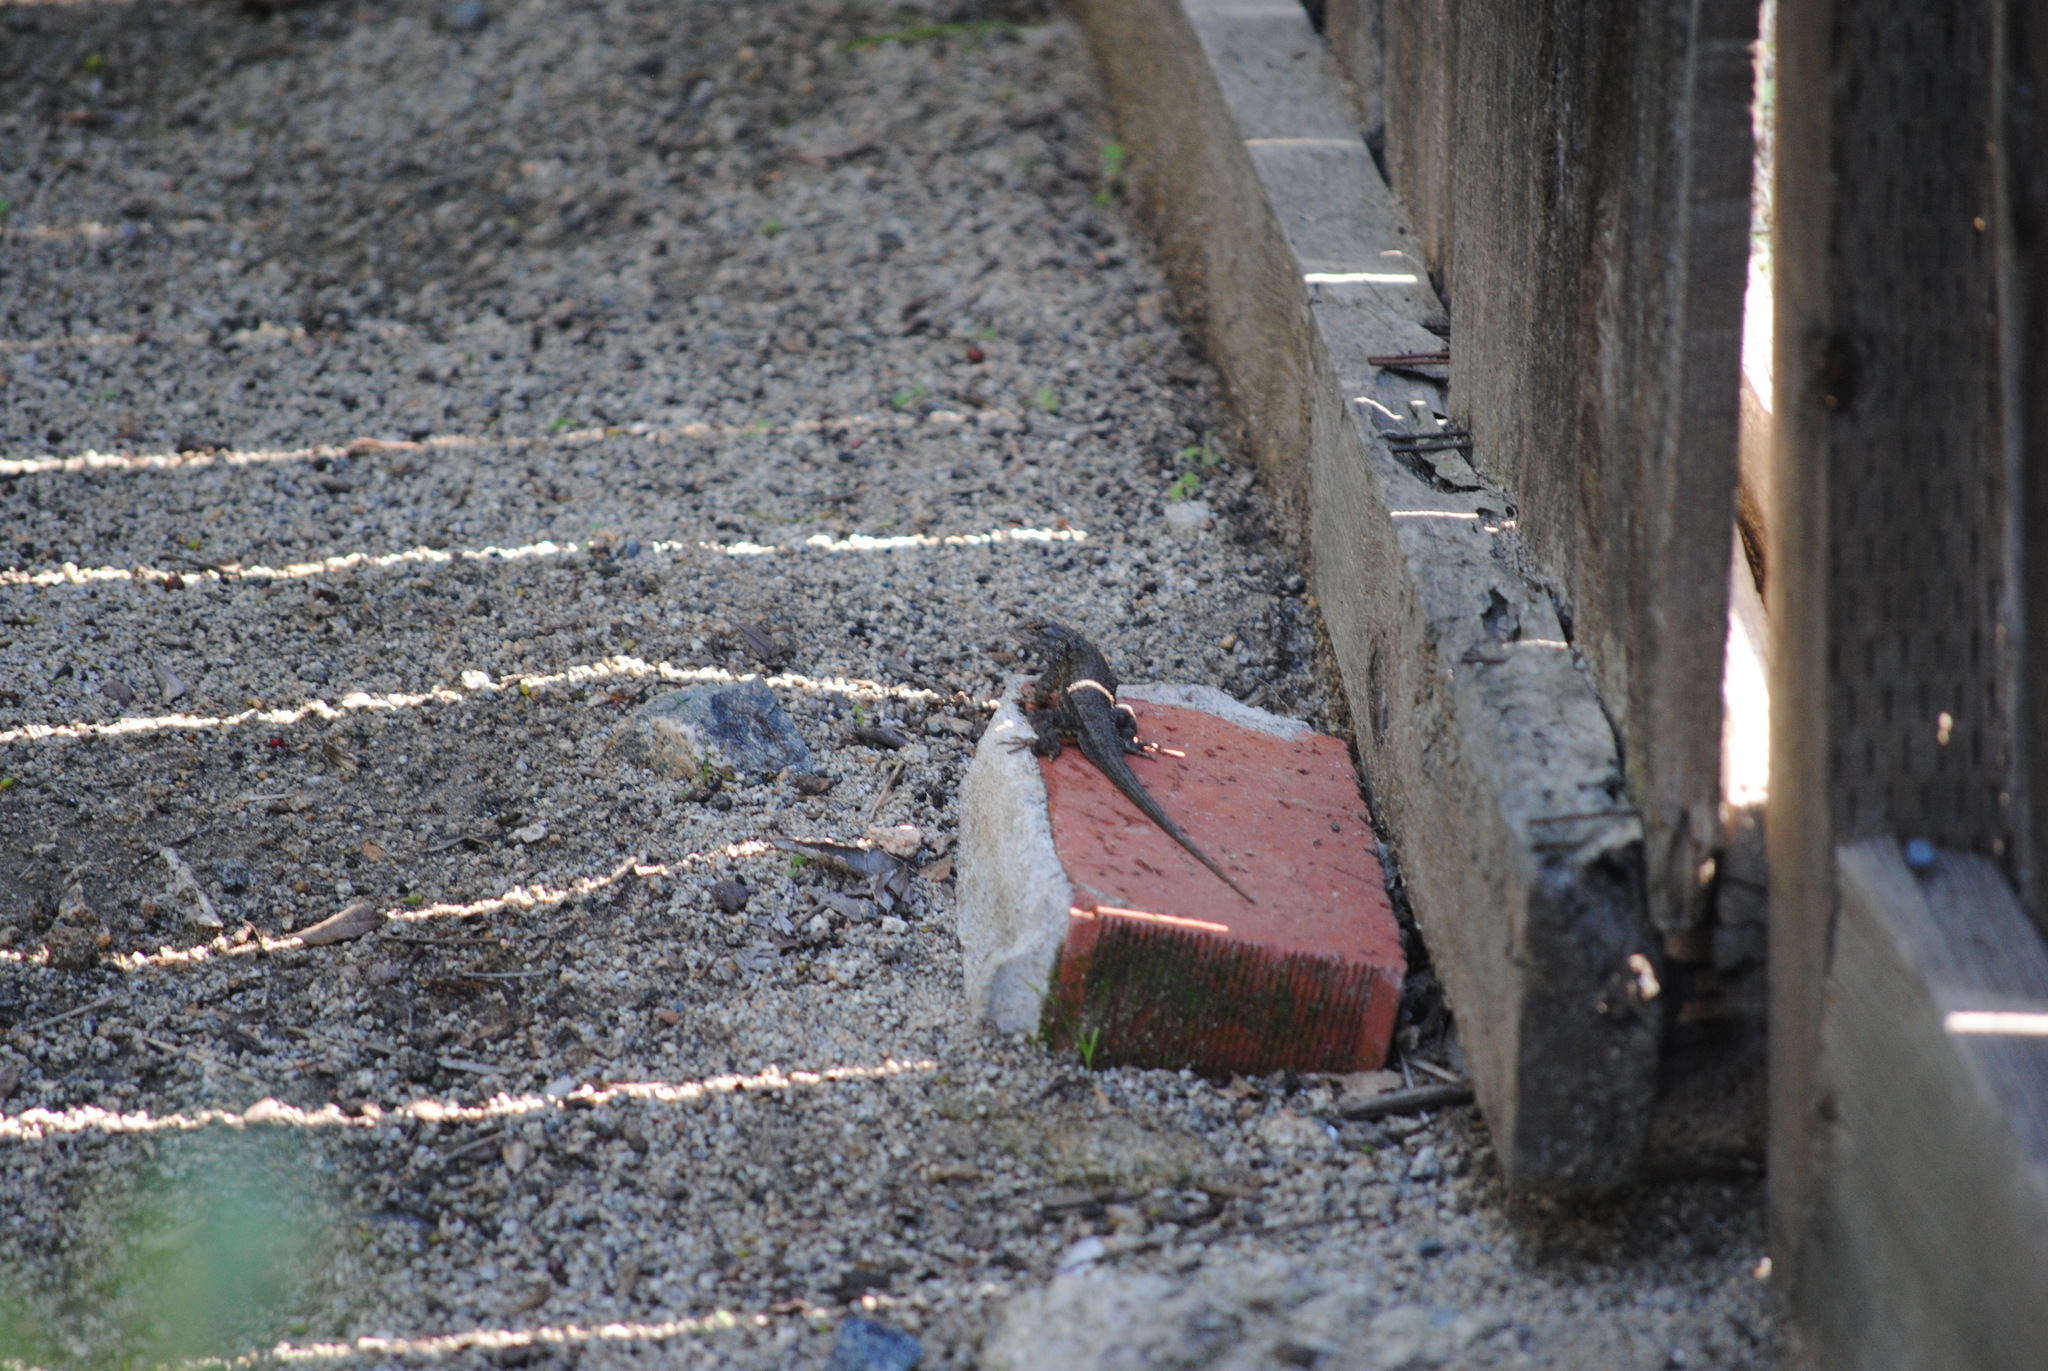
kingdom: Animalia
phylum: Chordata
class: Squamata
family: Phrynosomatidae
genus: Sceloporus
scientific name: Sceloporus occidentalis
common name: Western fence lizard
